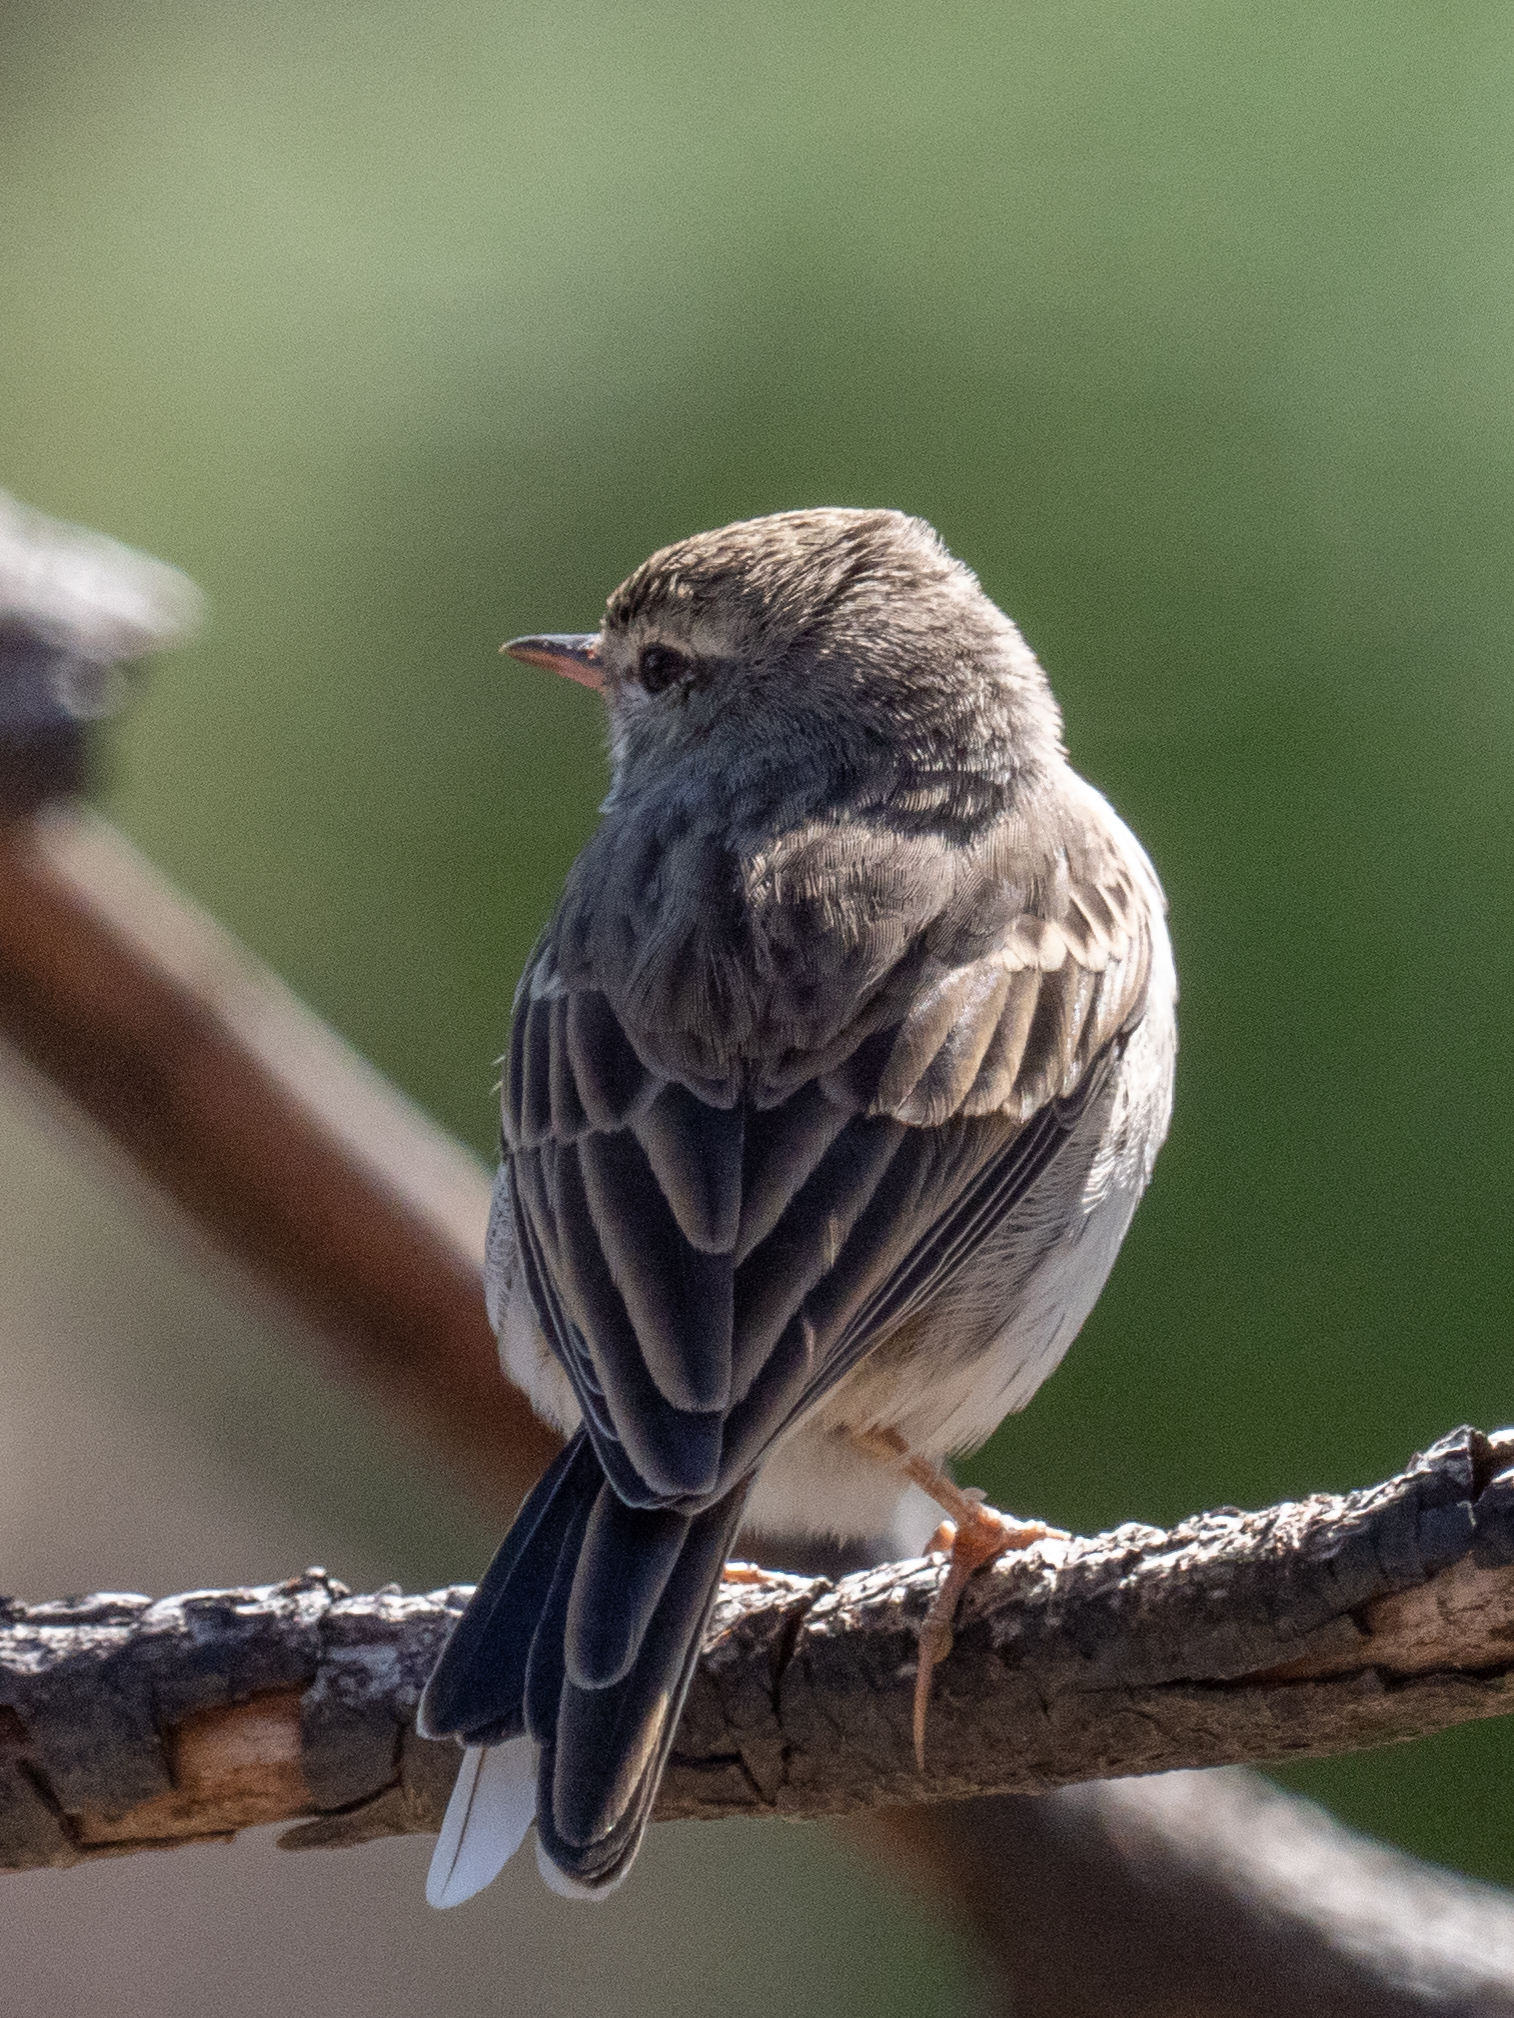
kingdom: Animalia
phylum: Chordata
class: Aves
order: Passeriformes
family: Motacillidae
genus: Anthus
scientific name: Anthus berthelotii
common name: Berthelot's pipit
